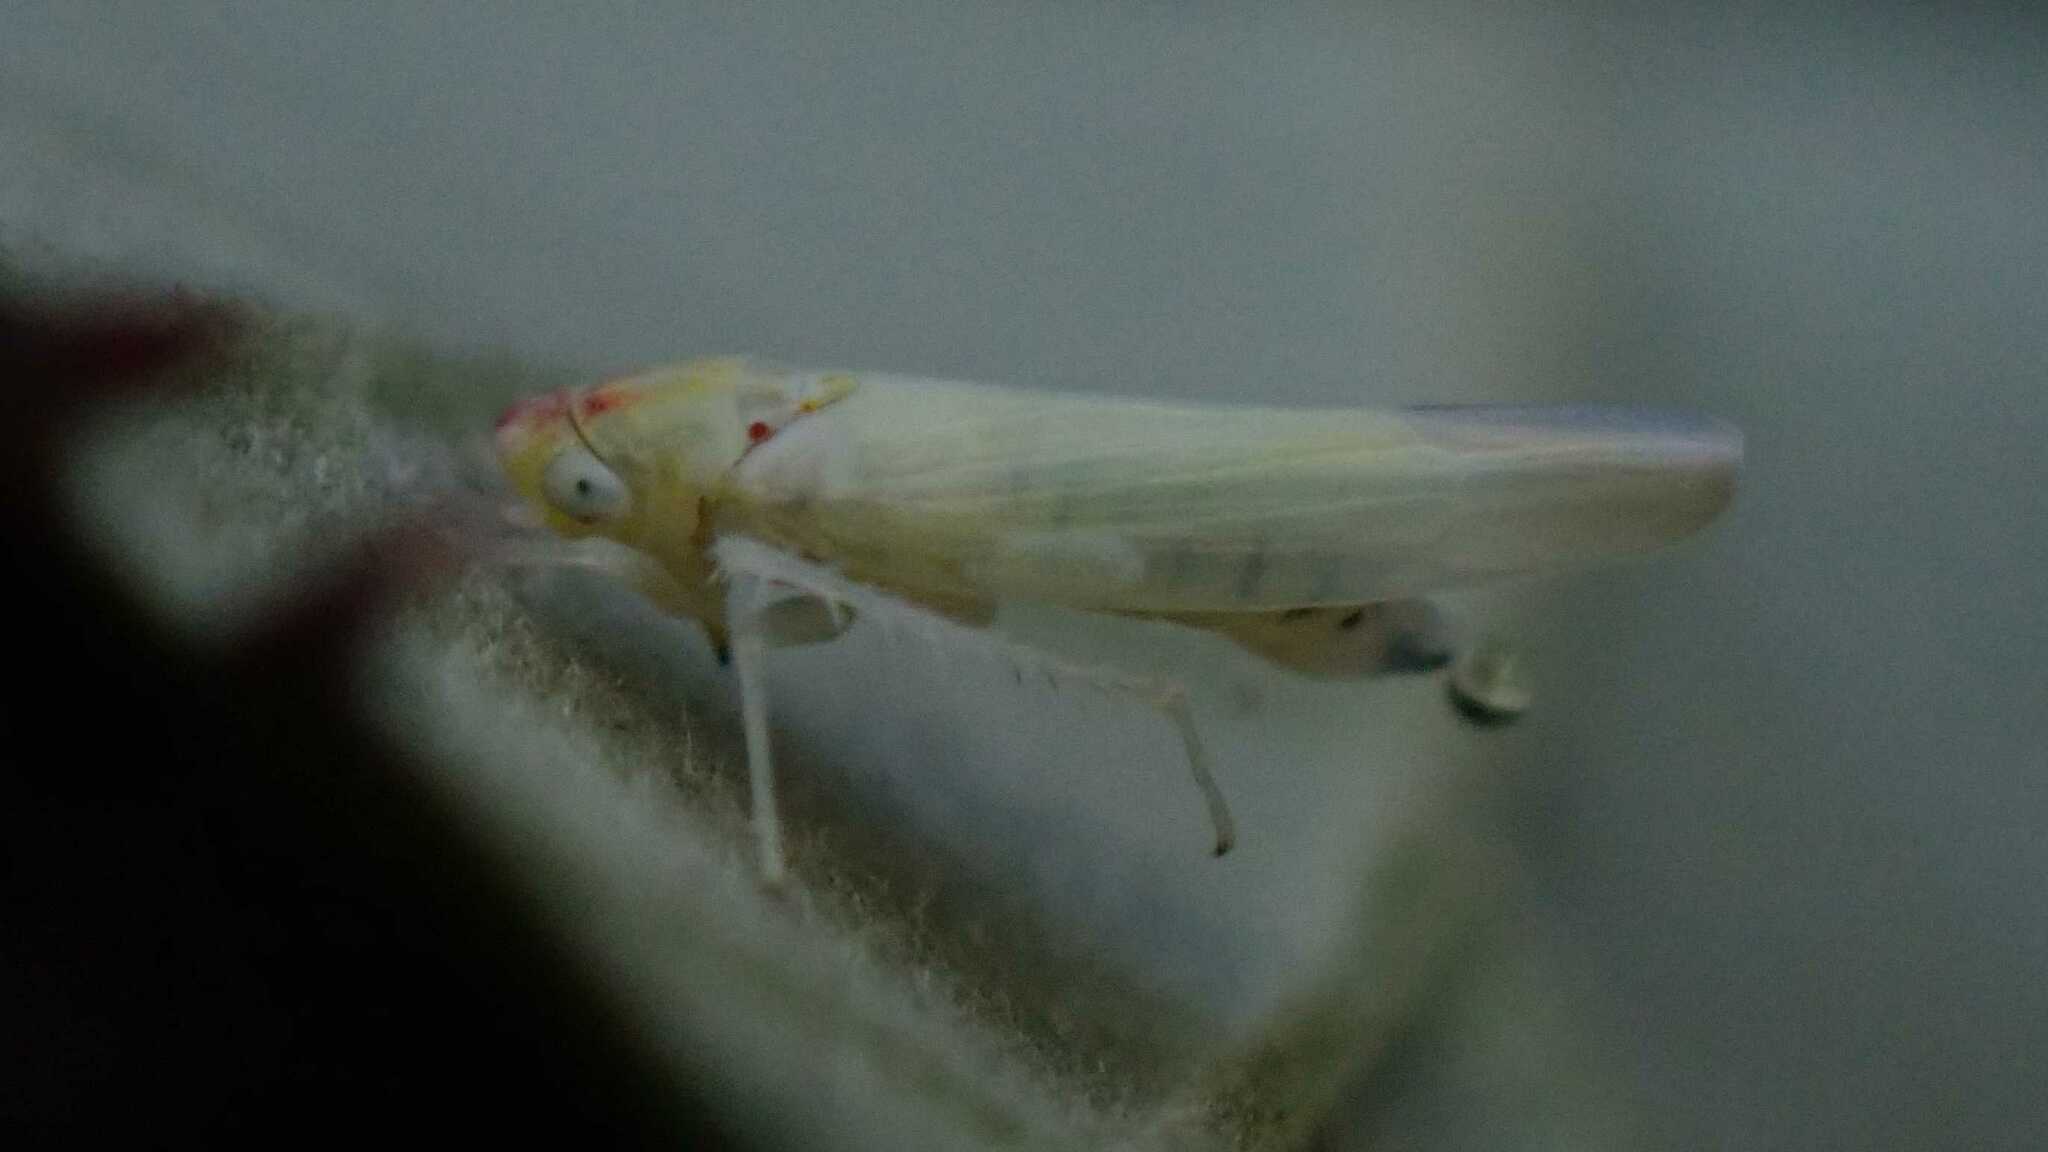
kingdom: Animalia
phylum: Arthropoda
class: Insecta
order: Hemiptera
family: Cicadellidae
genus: Zygina
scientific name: Zygina nivea
